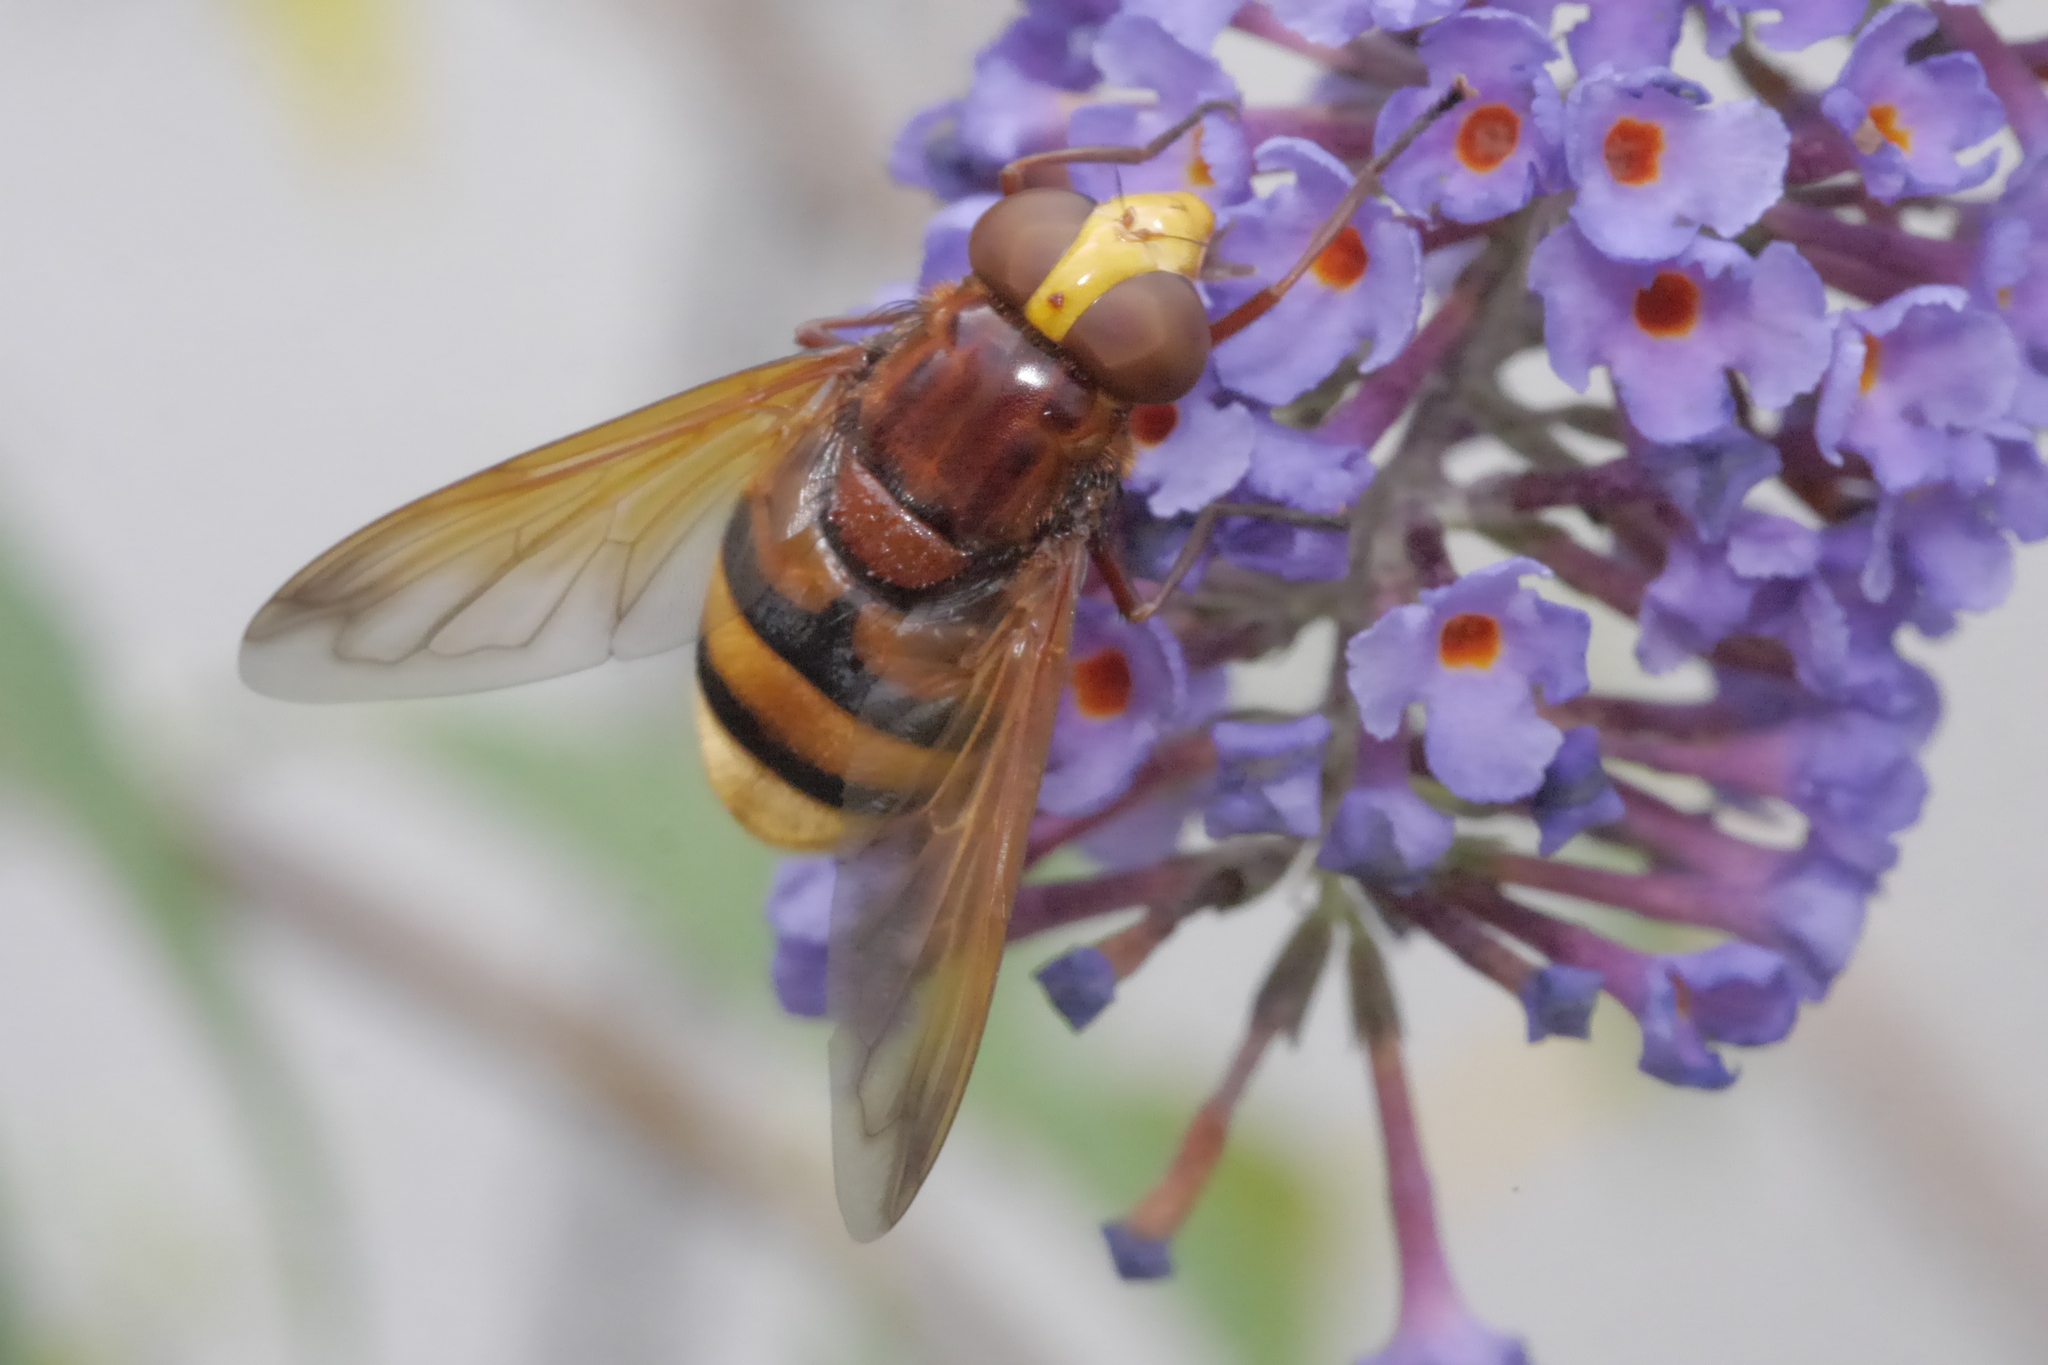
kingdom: Animalia
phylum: Arthropoda
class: Insecta
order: Diptera
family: Syrphidae
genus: Volucella
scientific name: Volucella zonaria
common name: Hornet hoverfly
